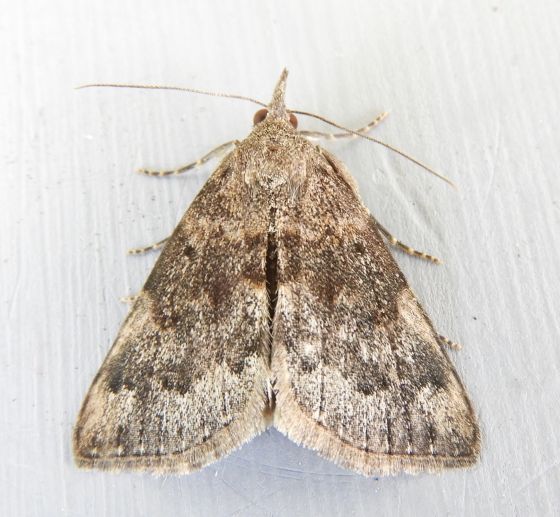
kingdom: Animalia
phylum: Arthropoda
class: Insecta
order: Lepidoptera
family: Erebidae
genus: Hypena
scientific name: Hypena vega
